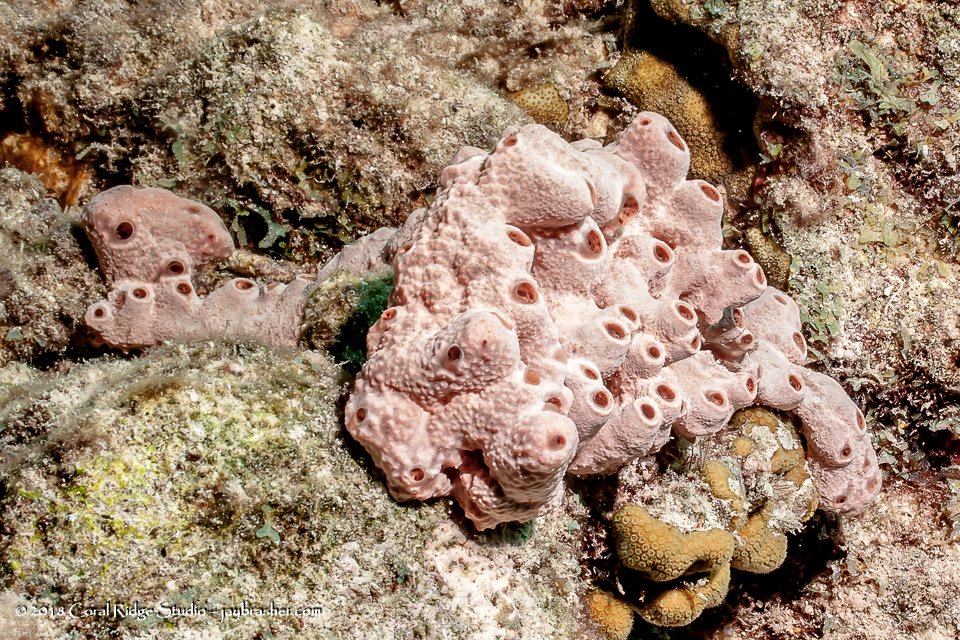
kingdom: Animalia
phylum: Porifera
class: Demospongiae
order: Poecilosclerida
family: Desmacididae
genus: Desmapsamma
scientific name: Desmapsamma anchorata
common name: Lumpy overgrowing sponge
